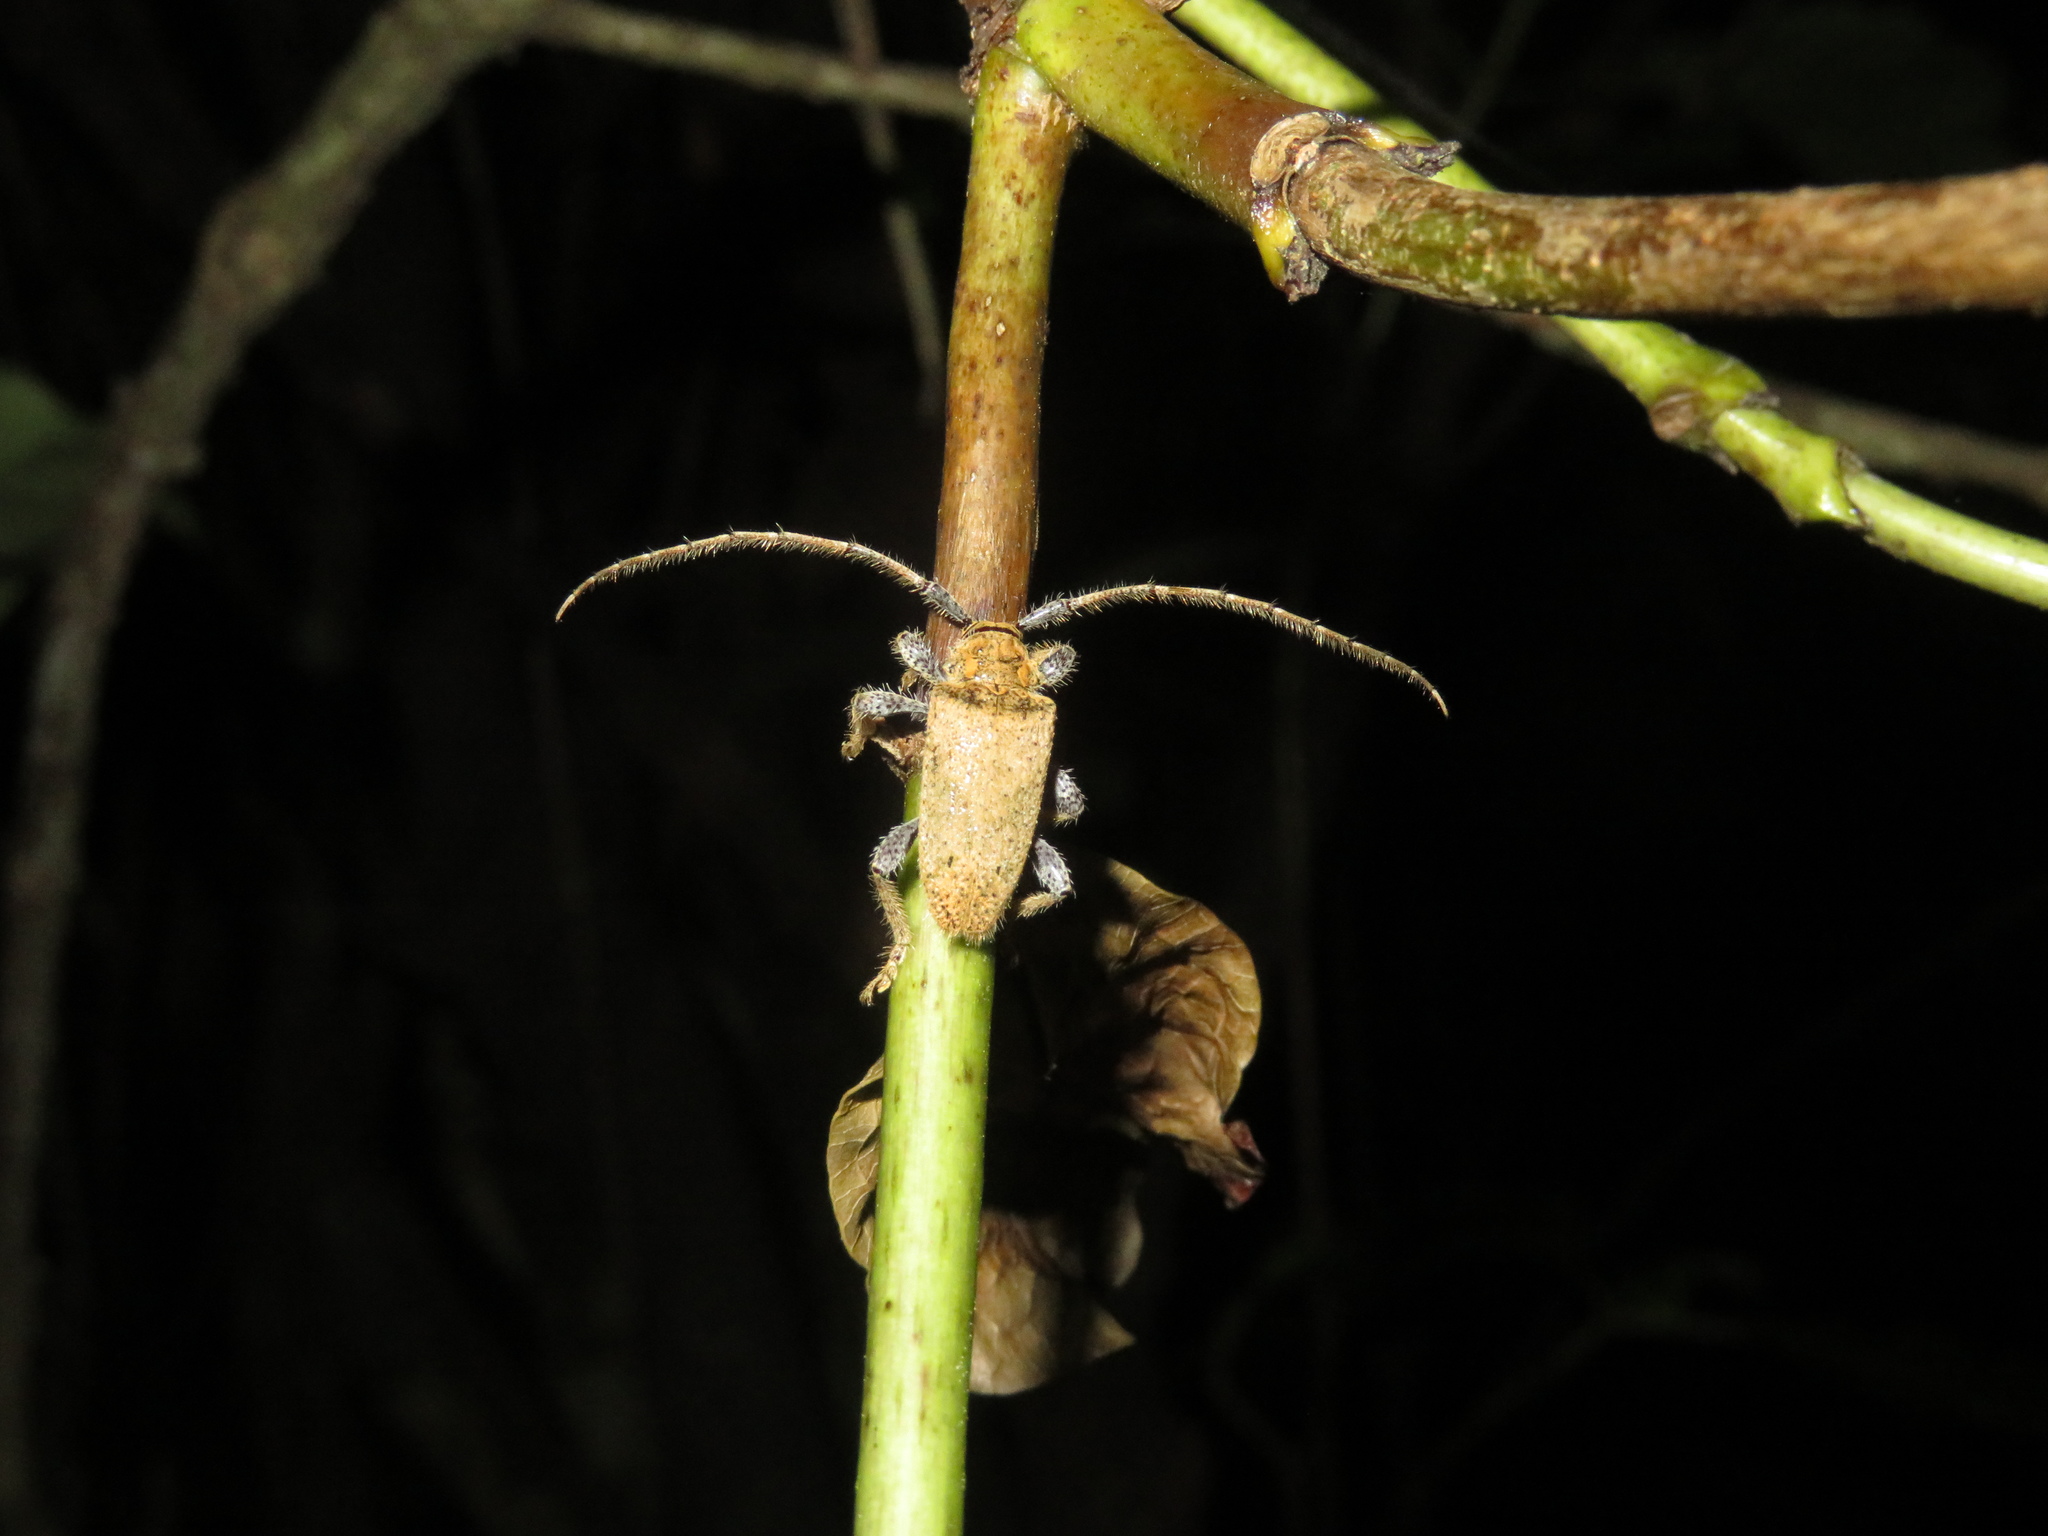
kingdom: Animalia
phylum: Arthropoda
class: Insecta
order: Coleoptera
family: Cerambycidae
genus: Polyacanthia
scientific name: Polyacanthia flavipes
